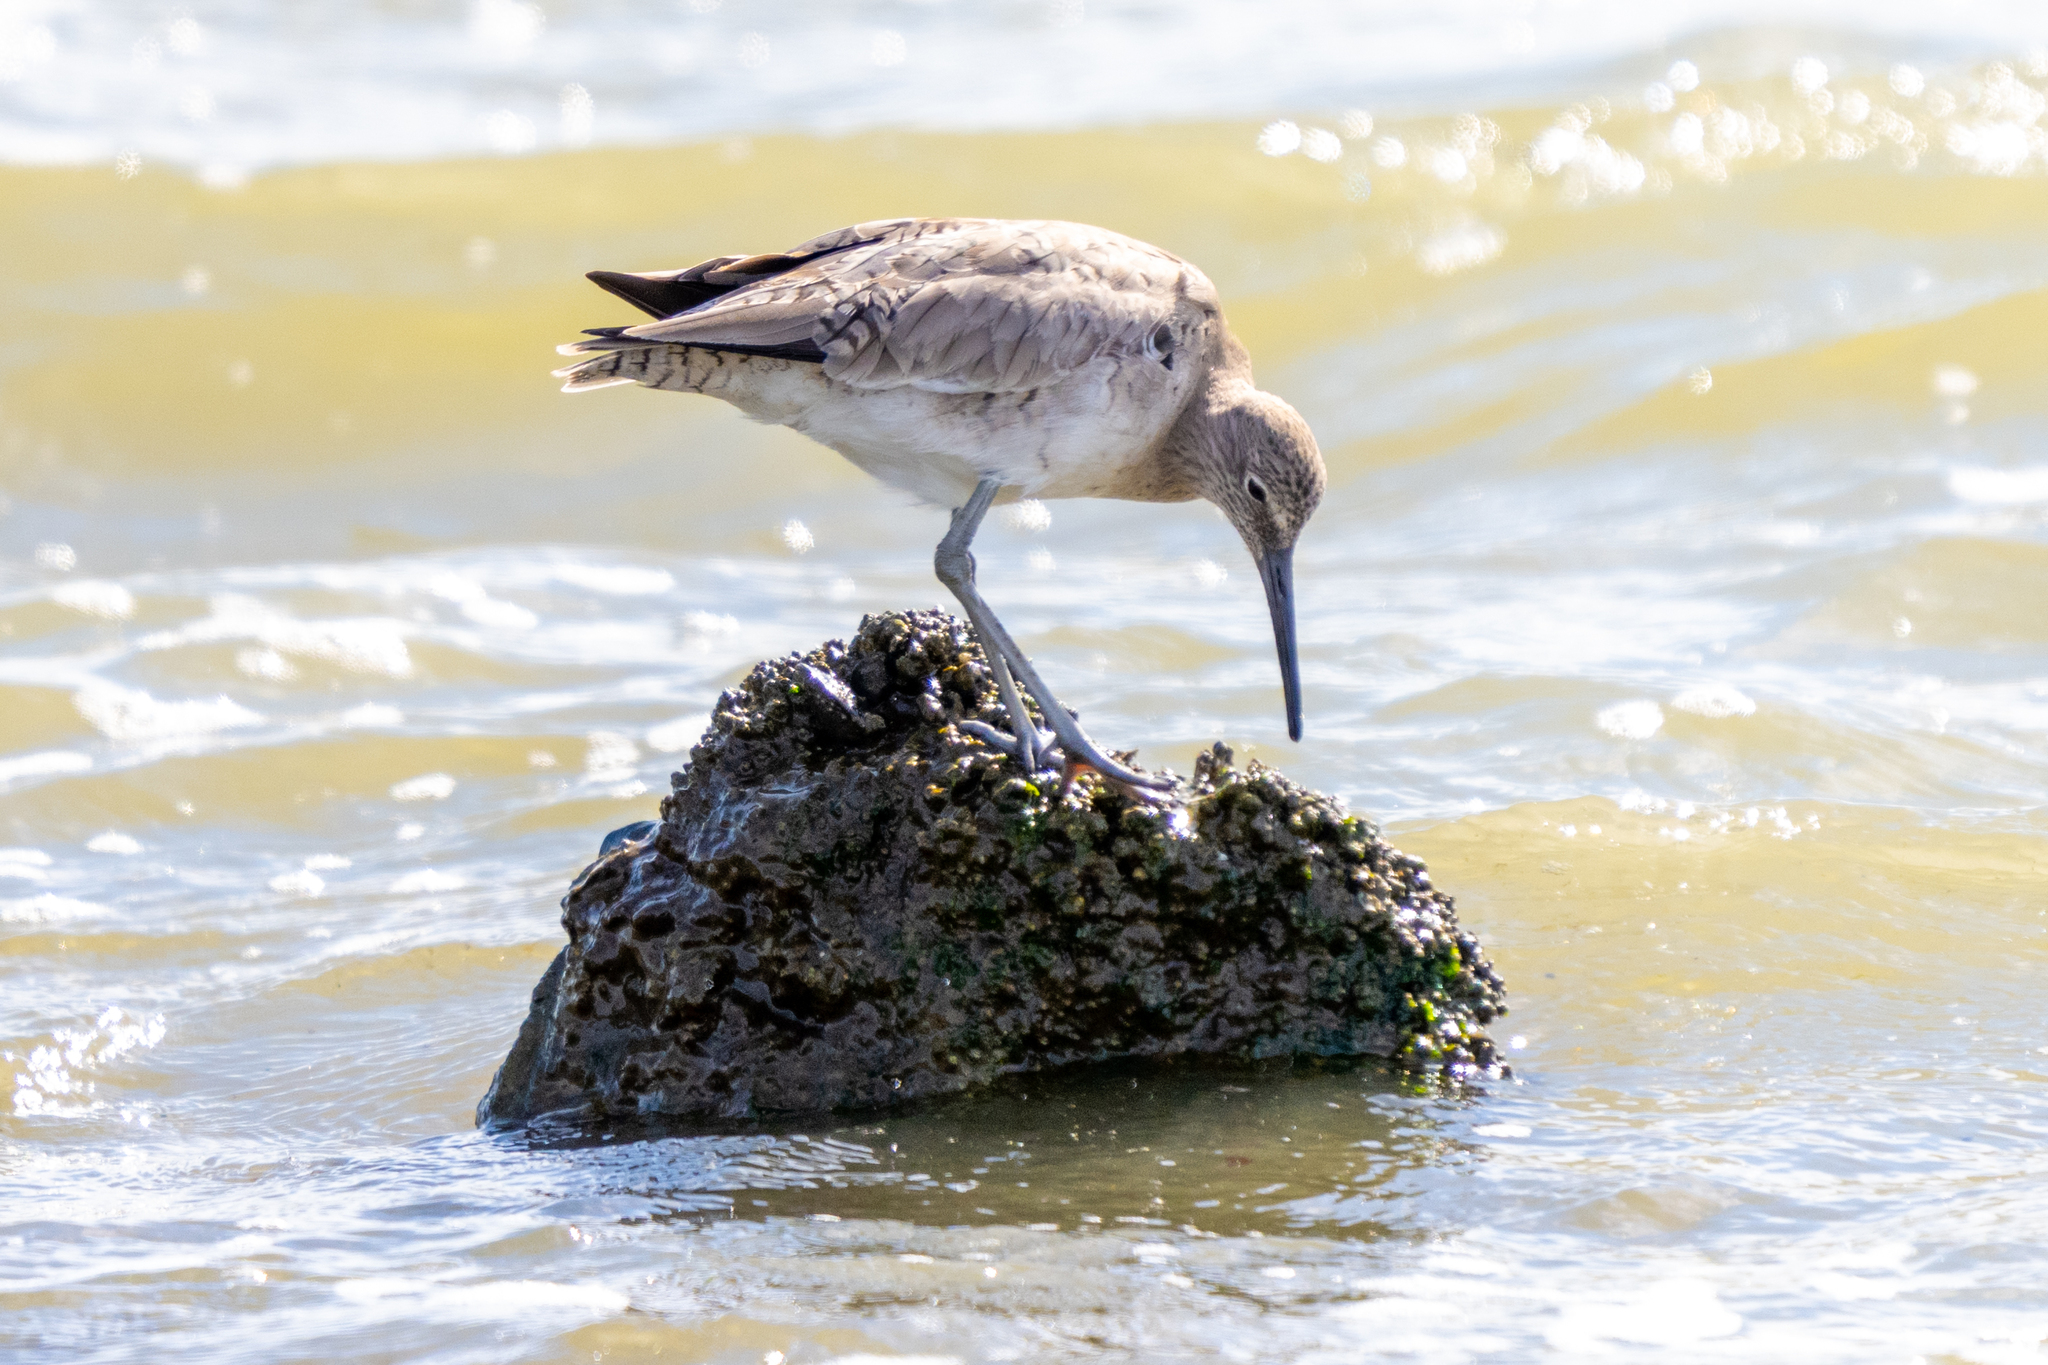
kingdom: Animalia
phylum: Chordata
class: Aves
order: Charadriiformes
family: Scolopacidae
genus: Tringa
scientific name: Tringa semipalmata
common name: Willet
